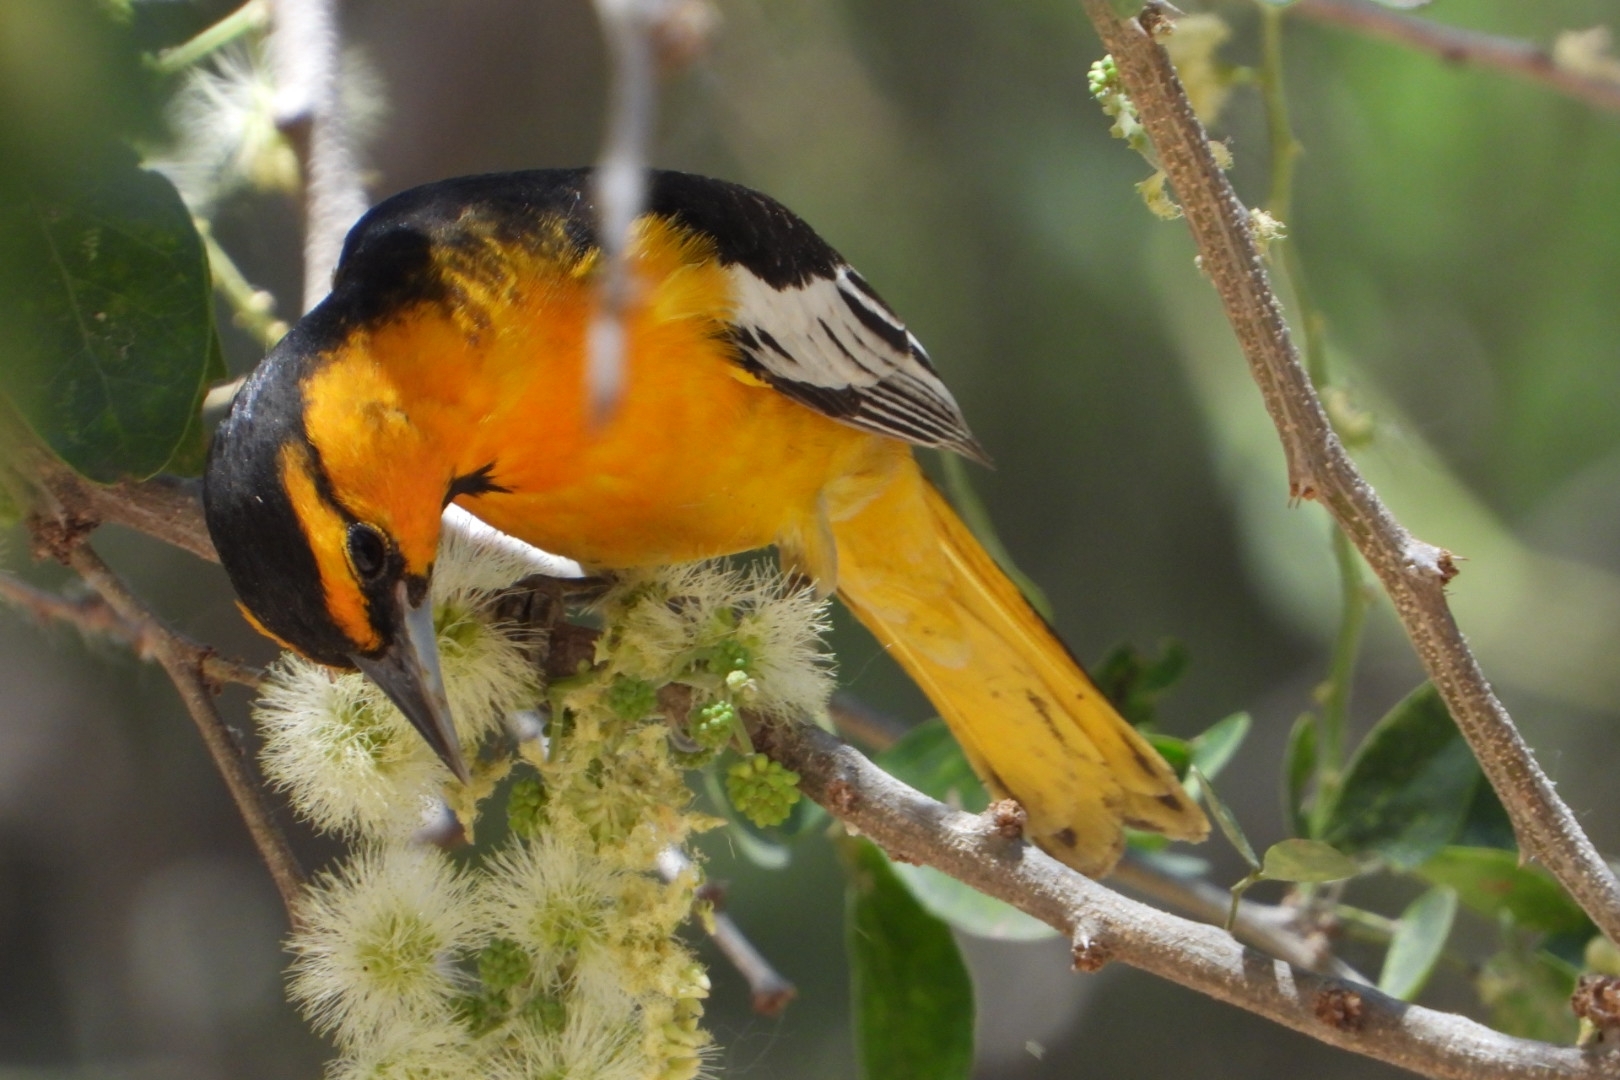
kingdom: Animalia
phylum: Chordata
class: Aves
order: Passeriformes
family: Icteridae
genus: Icterus
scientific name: Icterus bullockii
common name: Bullock's oriole
